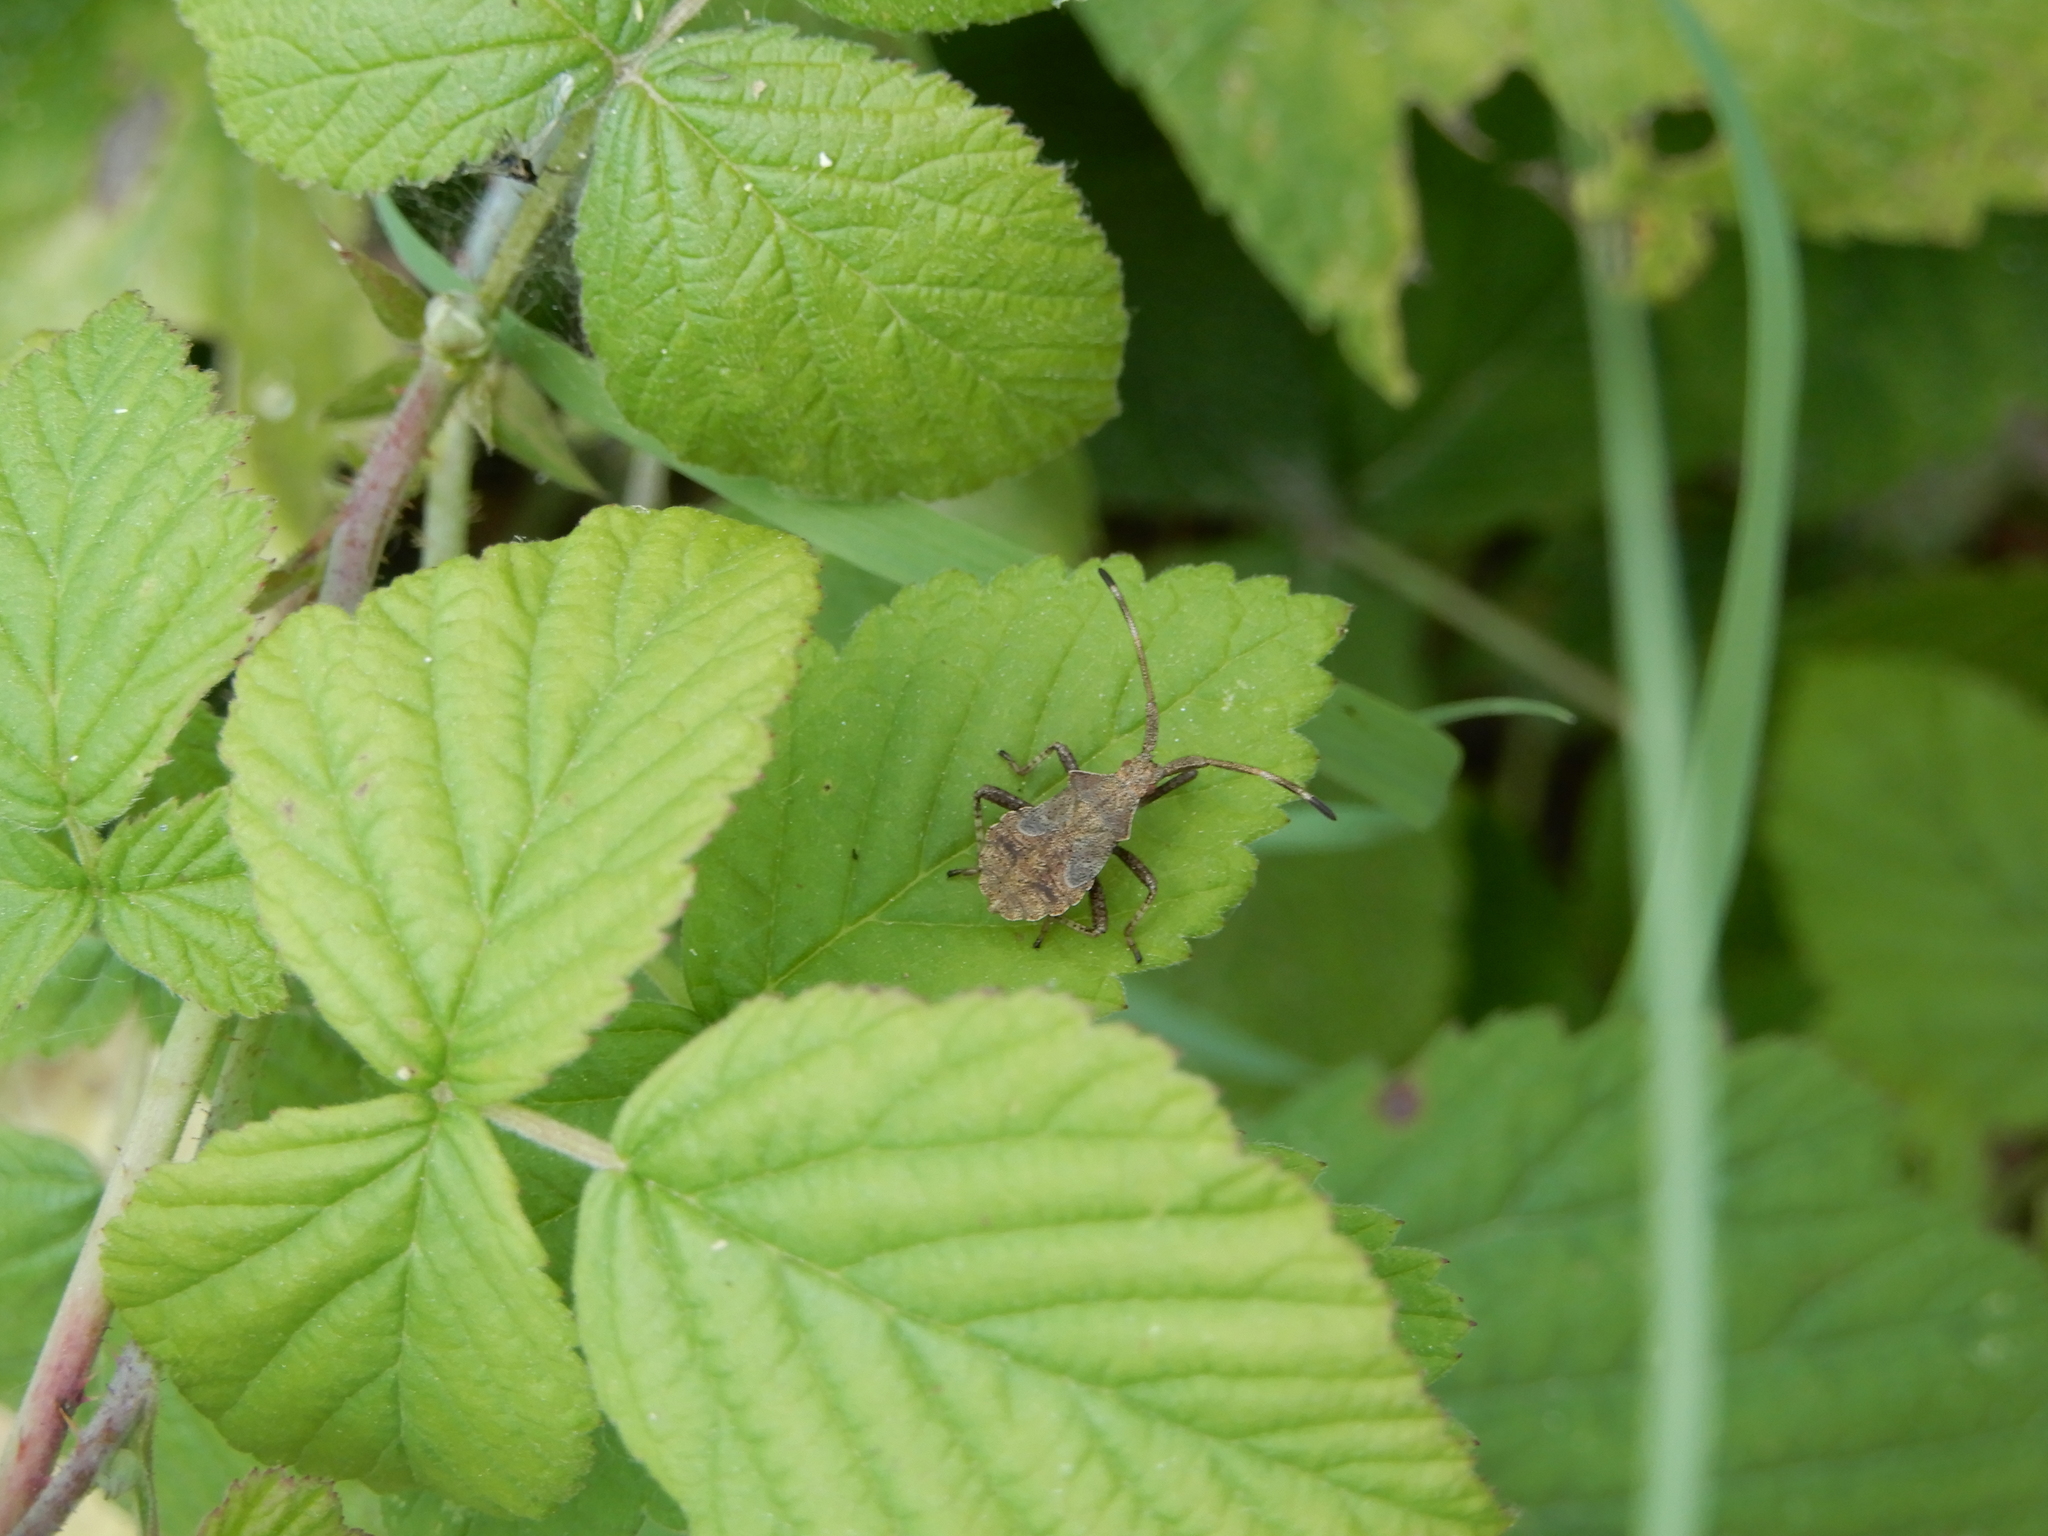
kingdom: Animalia
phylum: Arthropoda
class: Insecta
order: Hemiptera
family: Coreidae
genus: Coreus
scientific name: Coreus marginatus
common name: Dock bug
